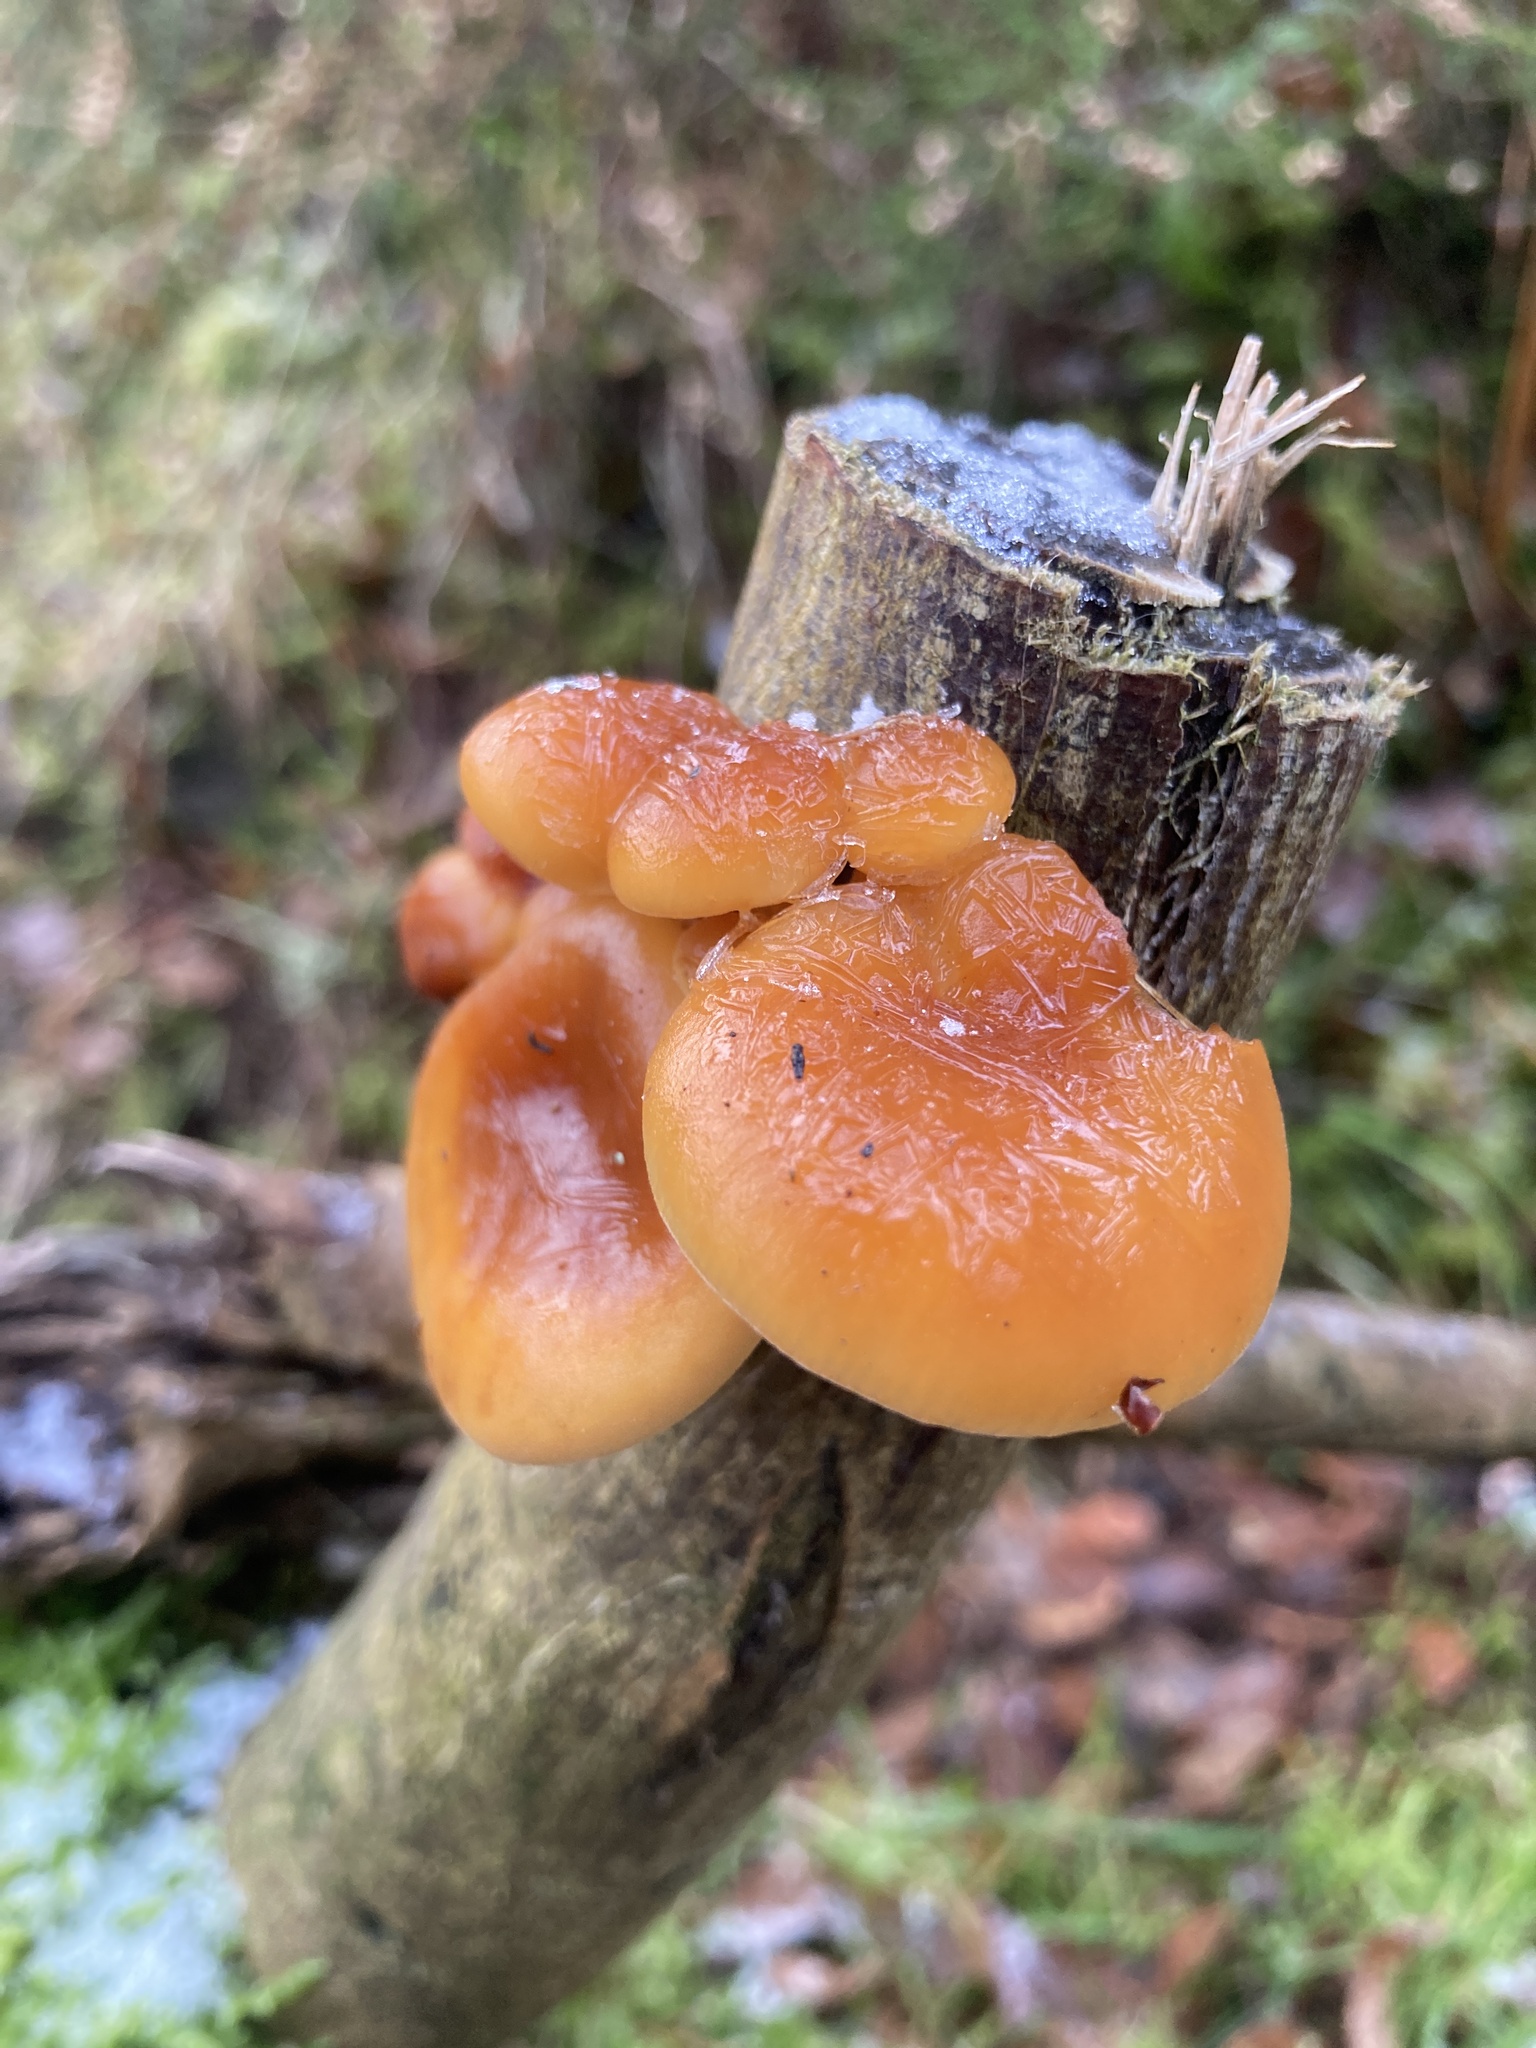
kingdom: Fungi
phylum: Basidiomycota
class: Agaricomycetes
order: Agaricales
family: Physalacriaceae
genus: Flammulina
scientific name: Flammulina
